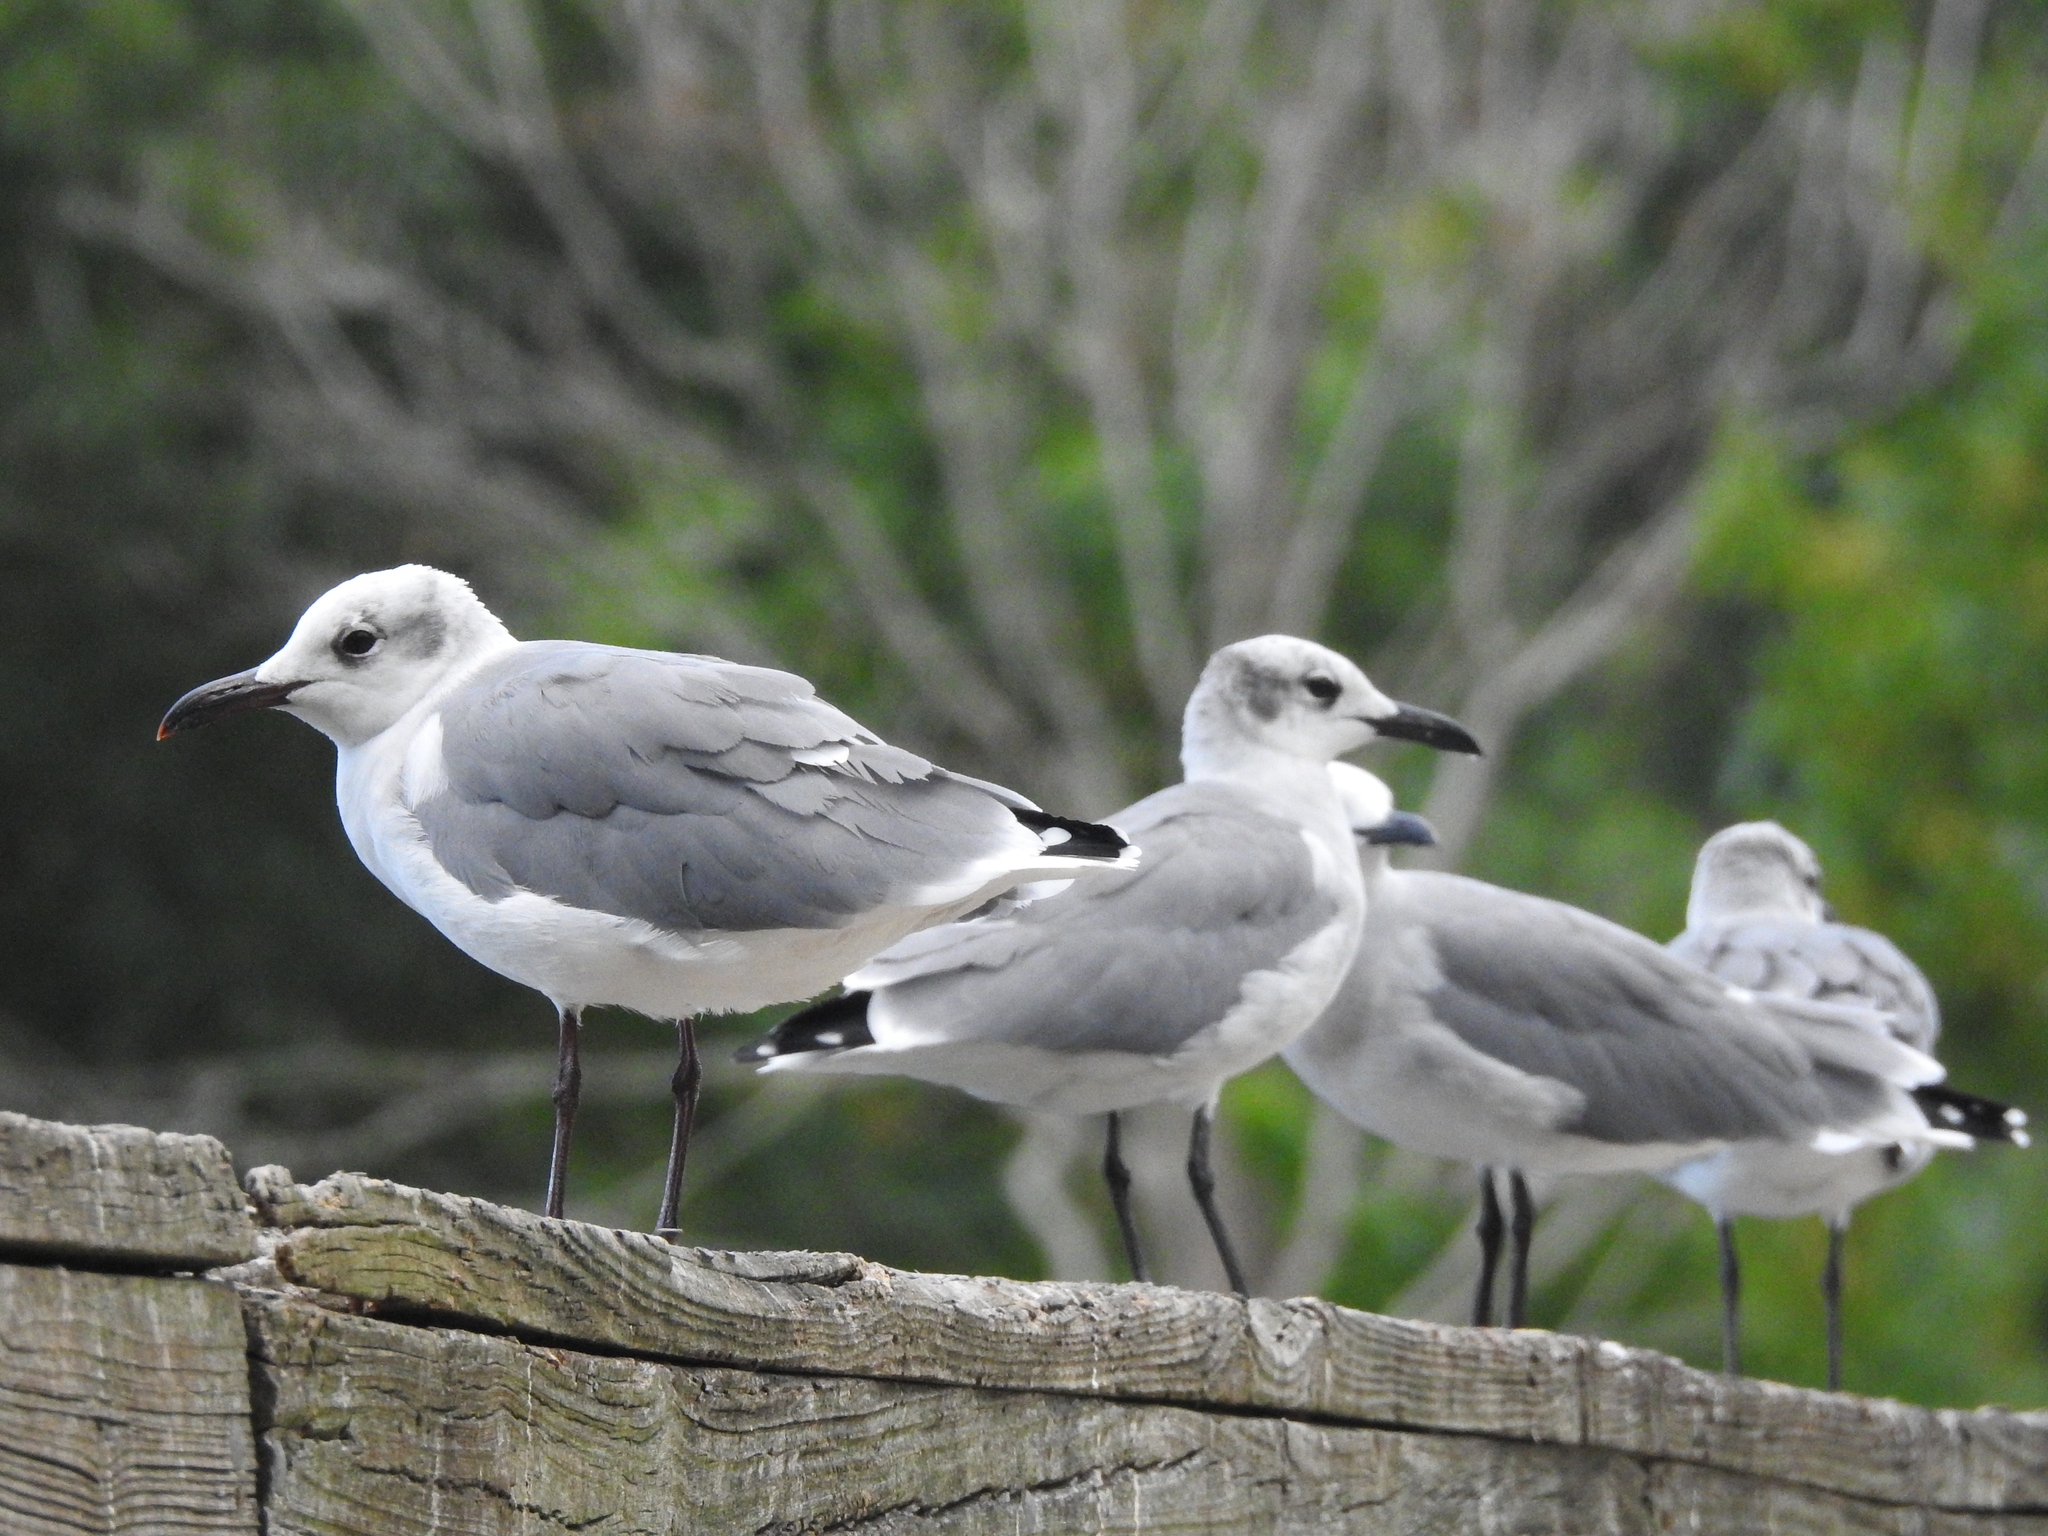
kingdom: Animalia
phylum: Chordata
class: Aves
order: Charadriiformes
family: Laridae
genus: Leucophaeus
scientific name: Leucophaeus atricilla
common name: Laughing gull
